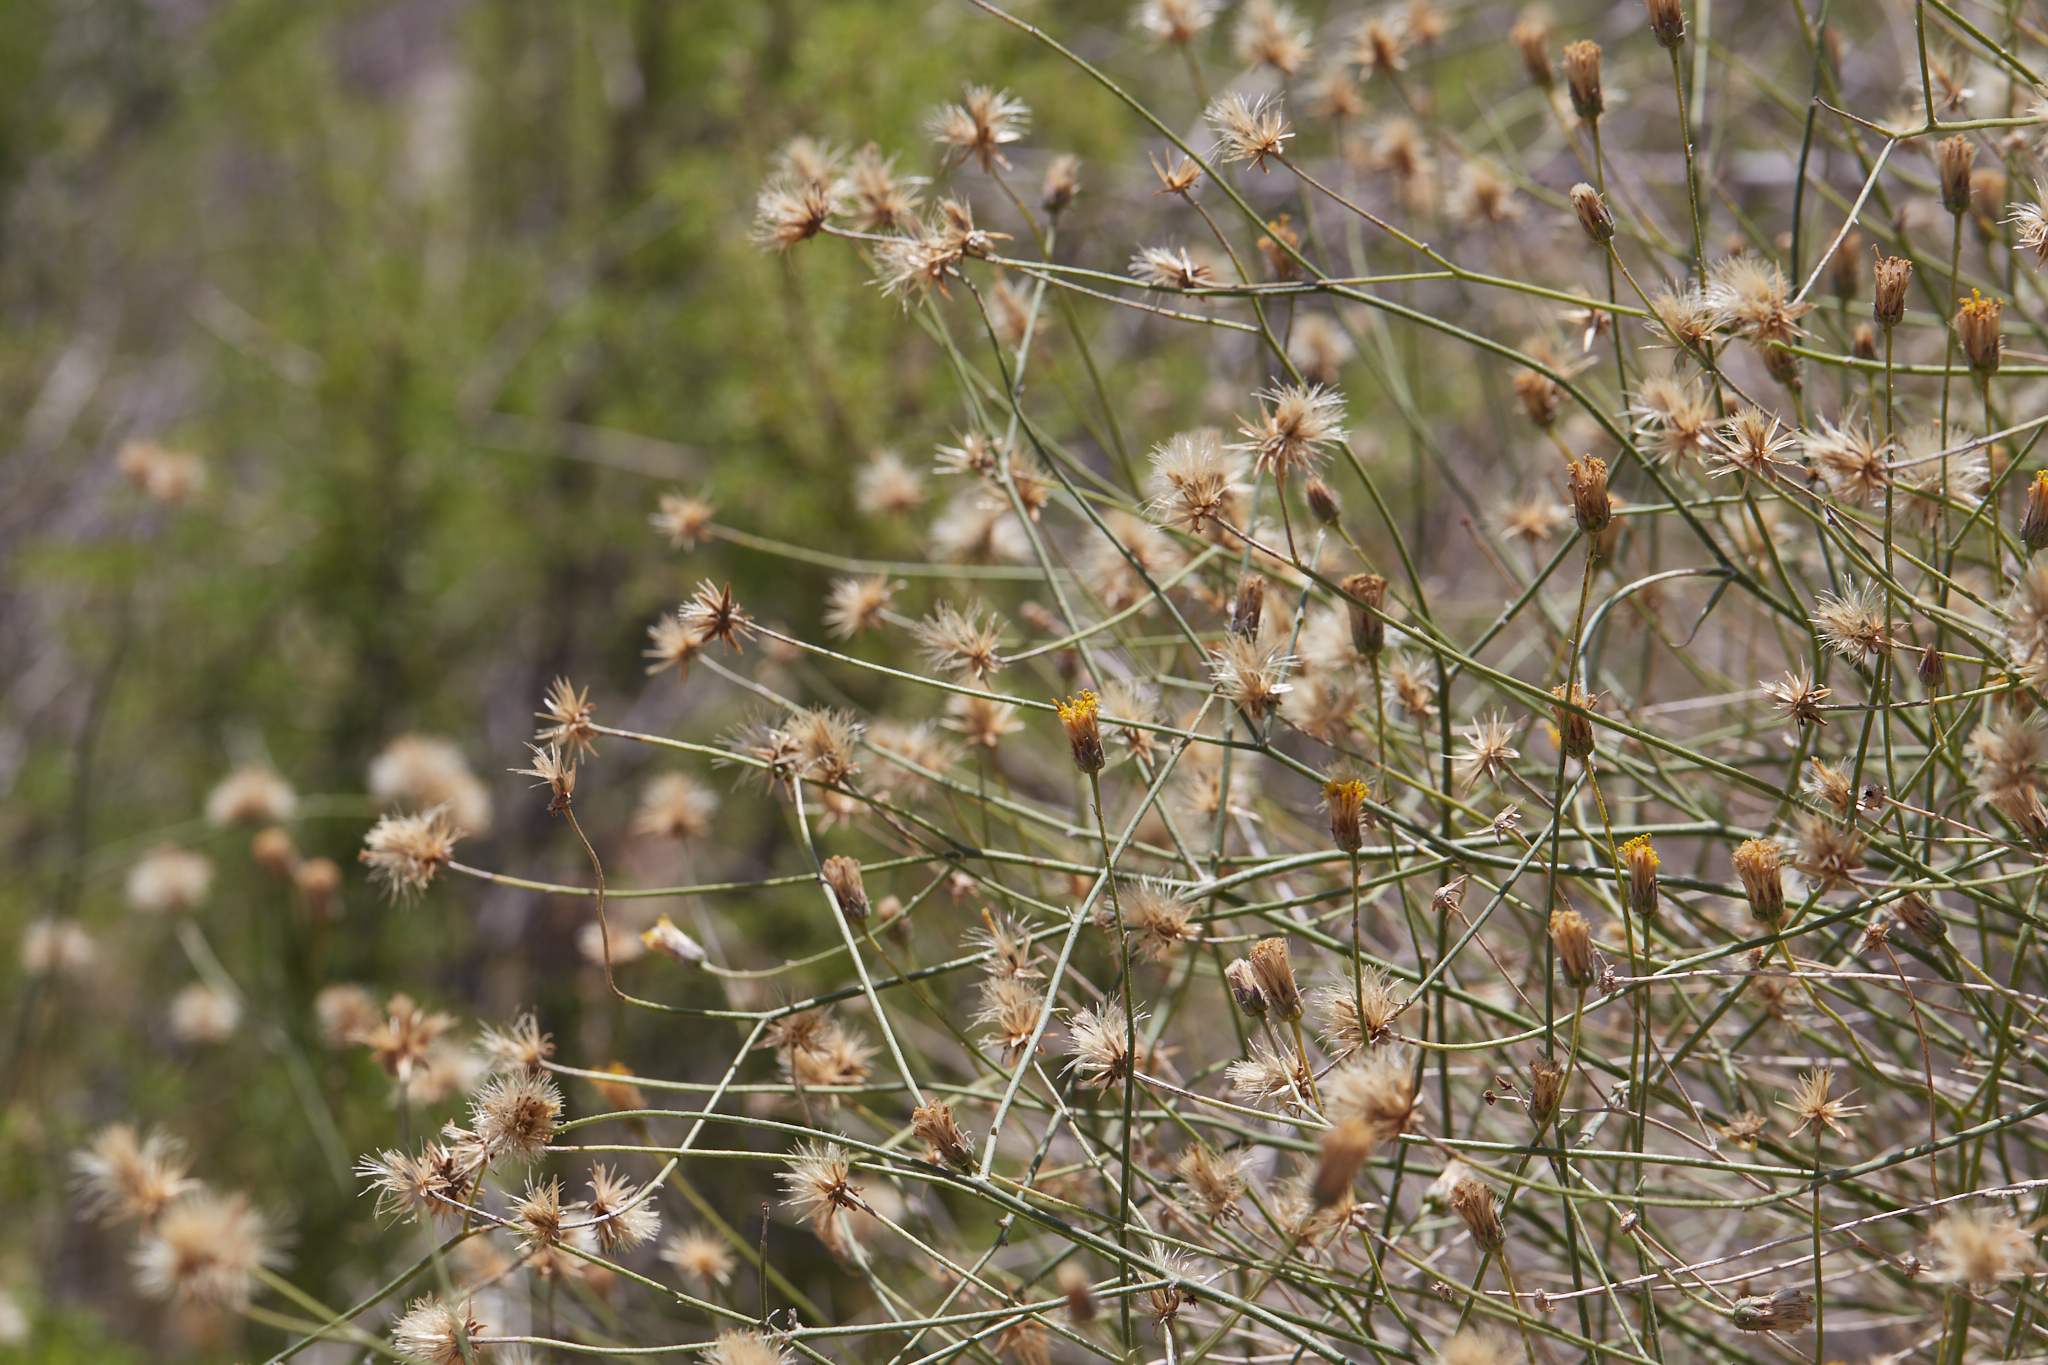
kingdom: Plantae
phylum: Tracheophyta
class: Magnoliopsida
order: Asterales
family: Asteraceae
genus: Bebbia
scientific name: Bebbia juncea
